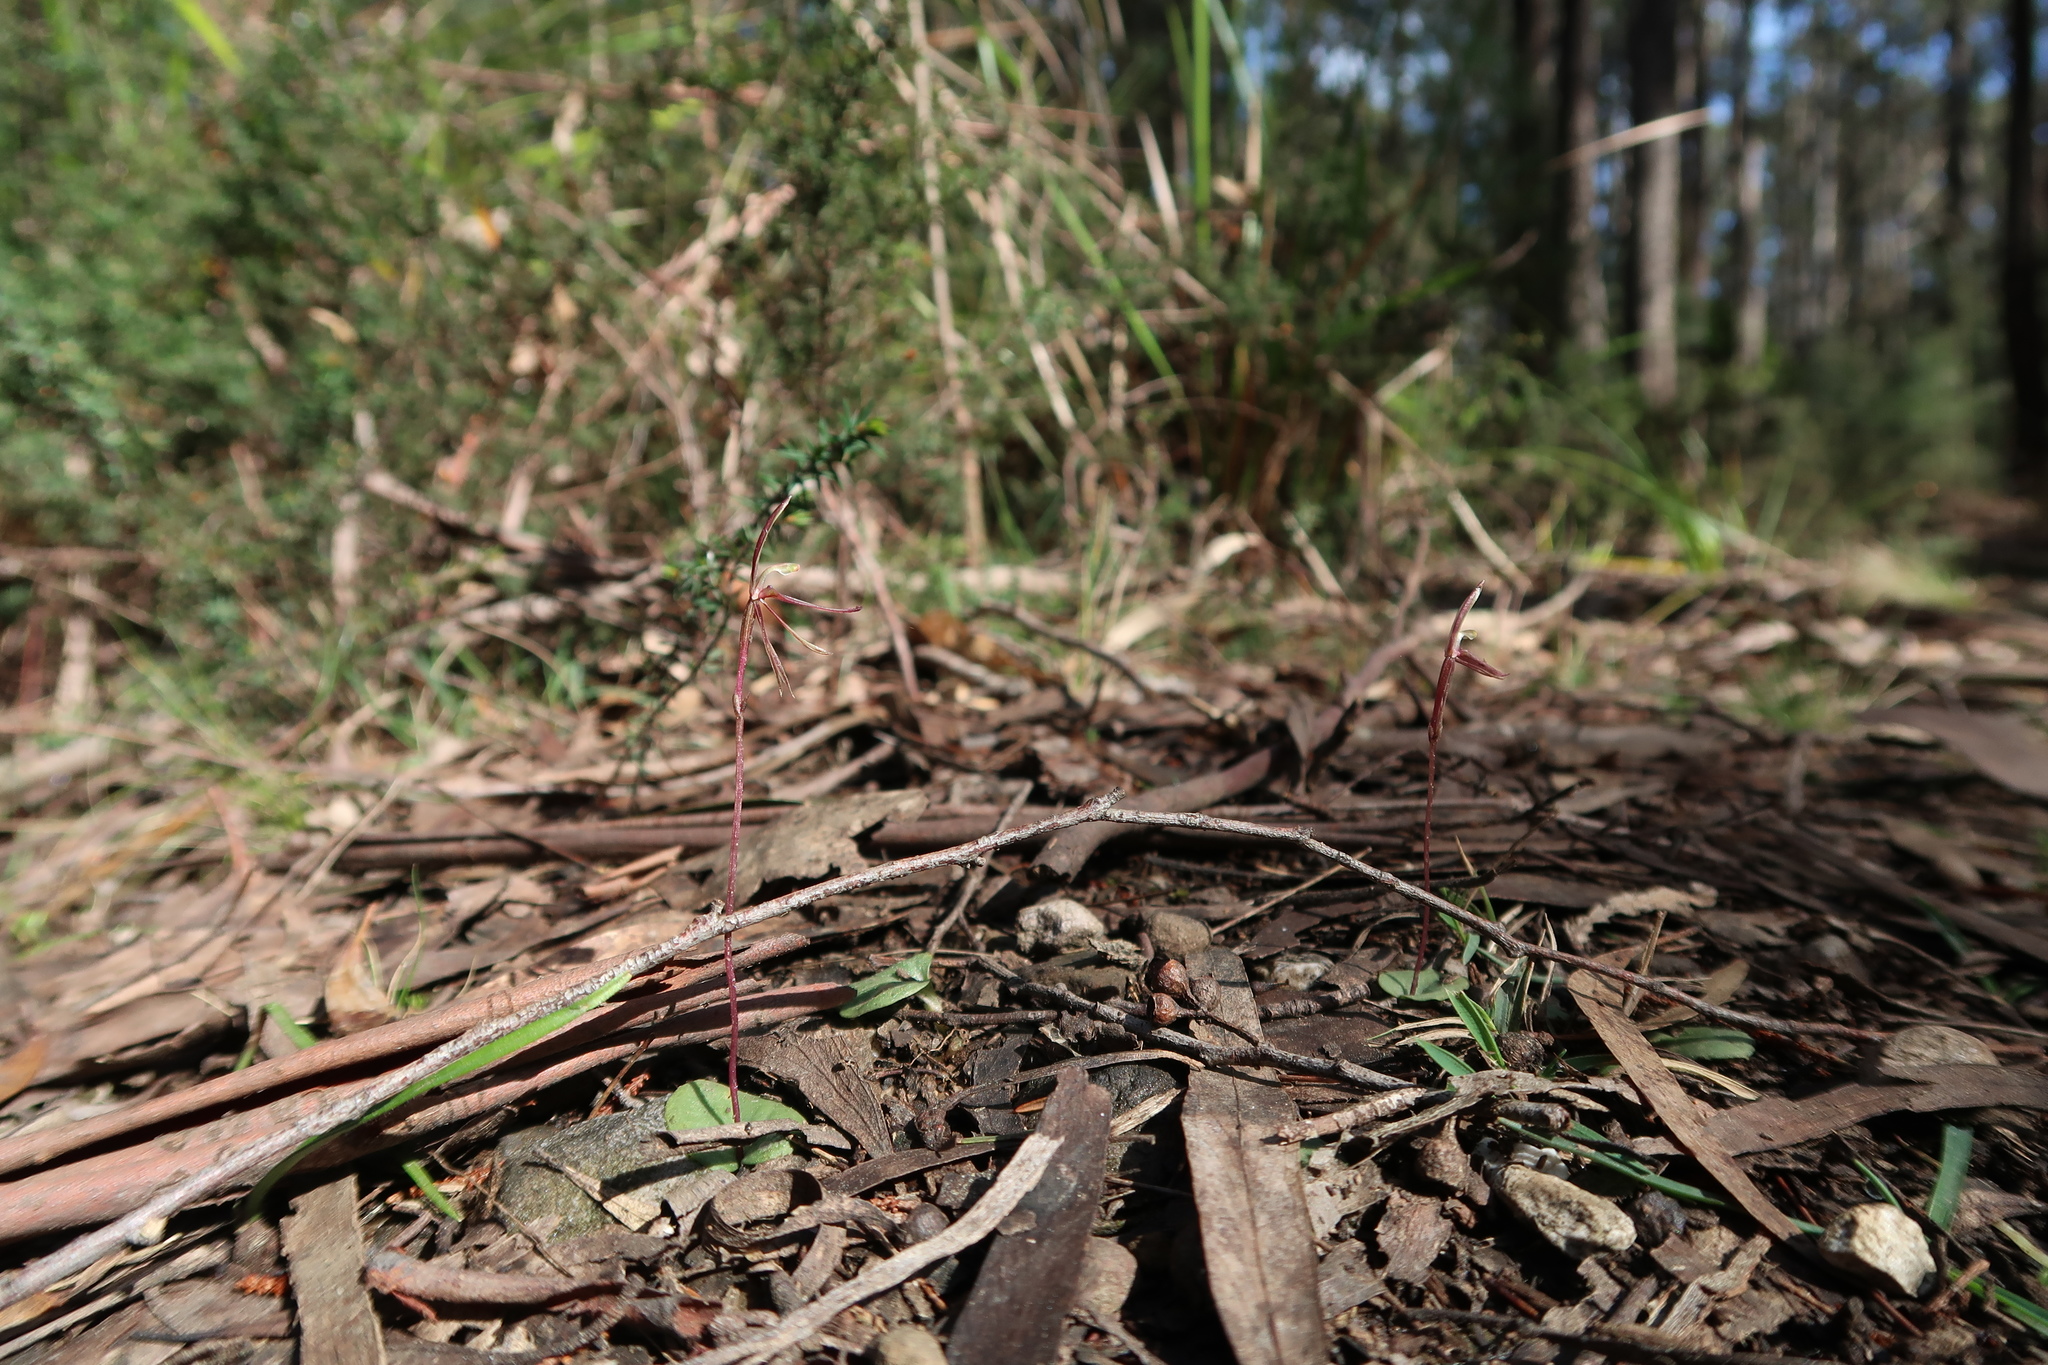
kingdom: Plantae
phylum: Tracheophyta
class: Liliopsida
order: Asparagales
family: Orchidaceae
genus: Cyrtostylis
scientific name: Cyrtostylis reniformis
